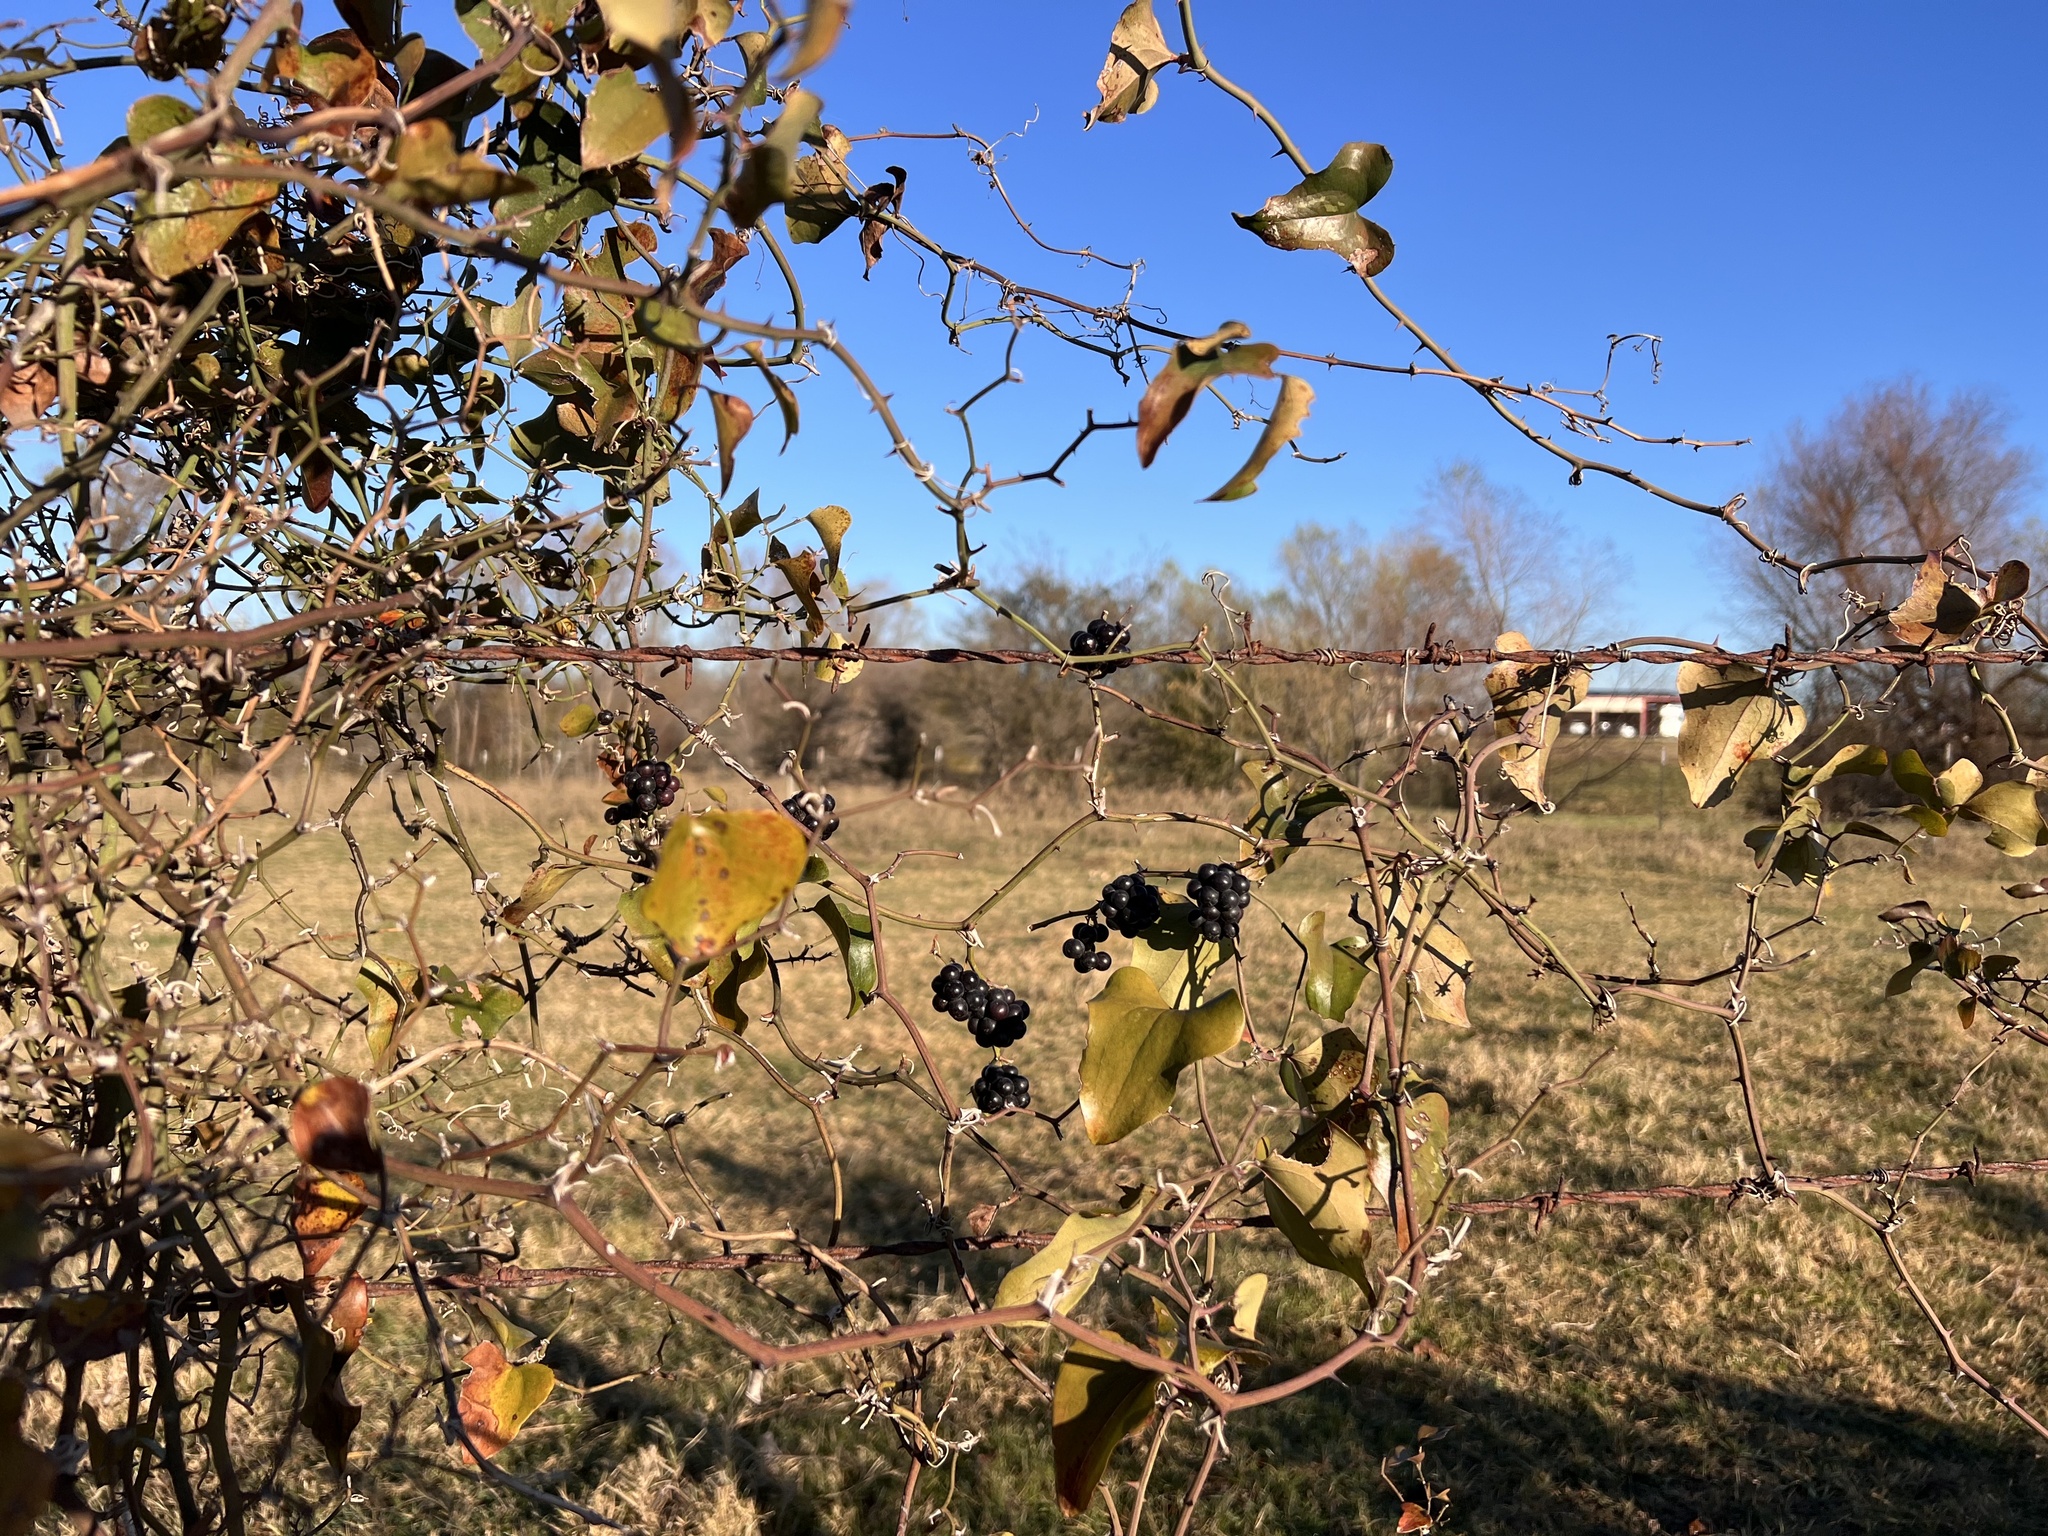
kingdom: Plantae
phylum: Tracheophyta
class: Liliopsida
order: Liliales
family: Smilacaceae
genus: Smilax
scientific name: Smilax bona-nox
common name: Catbrier
